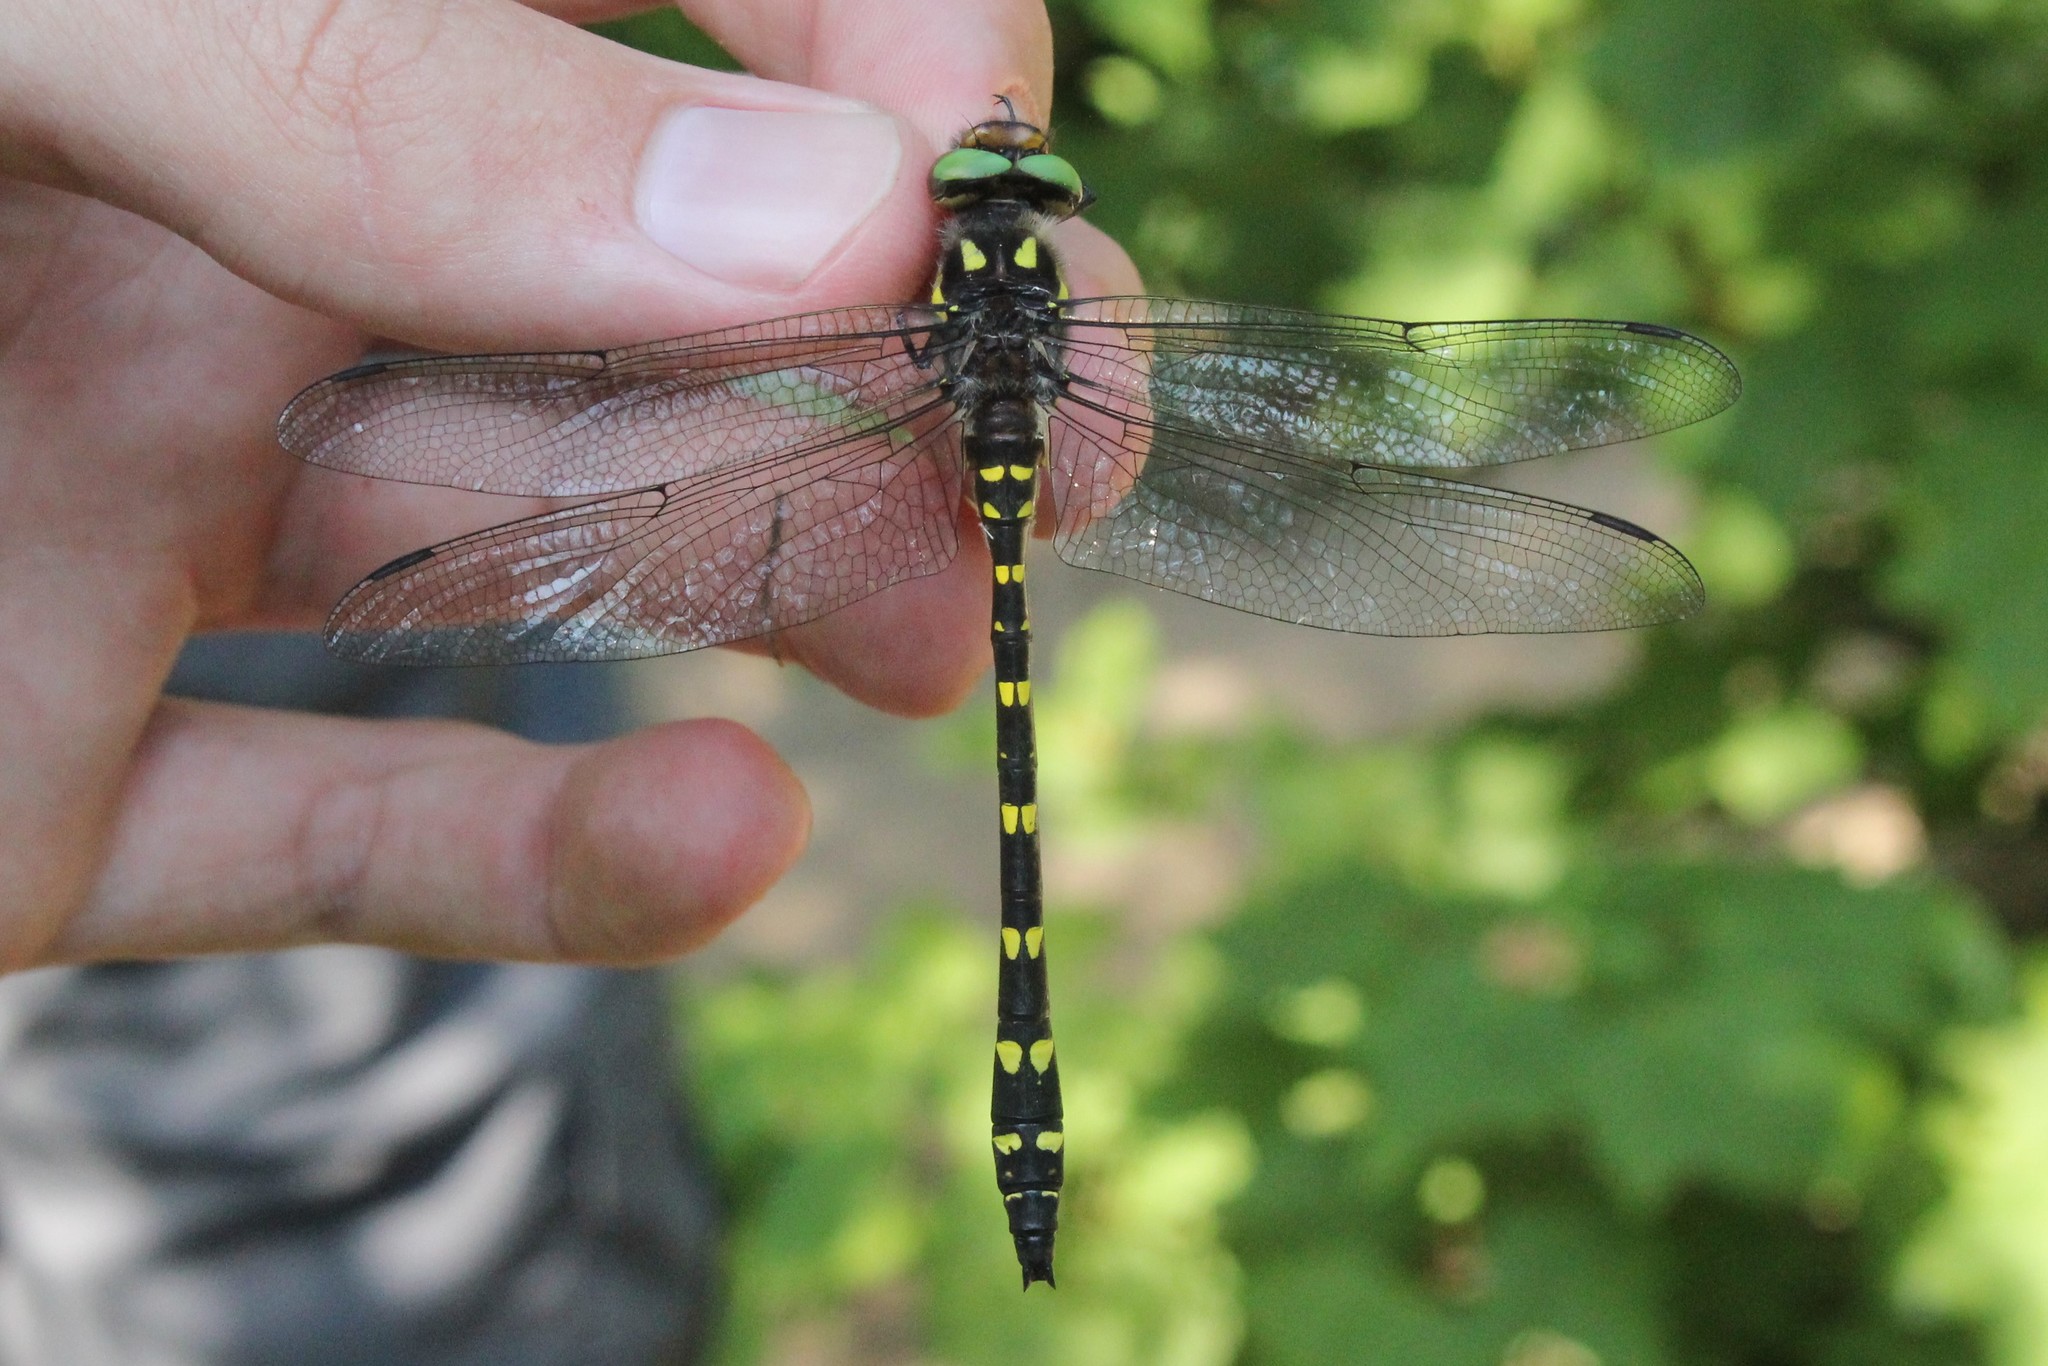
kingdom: Animalia
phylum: Arthropoda
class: Insecta
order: Odonata
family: Cordulegastridae
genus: Cordulegaster
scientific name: Cordulegaster maculata
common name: Twin-spotted spiketail
